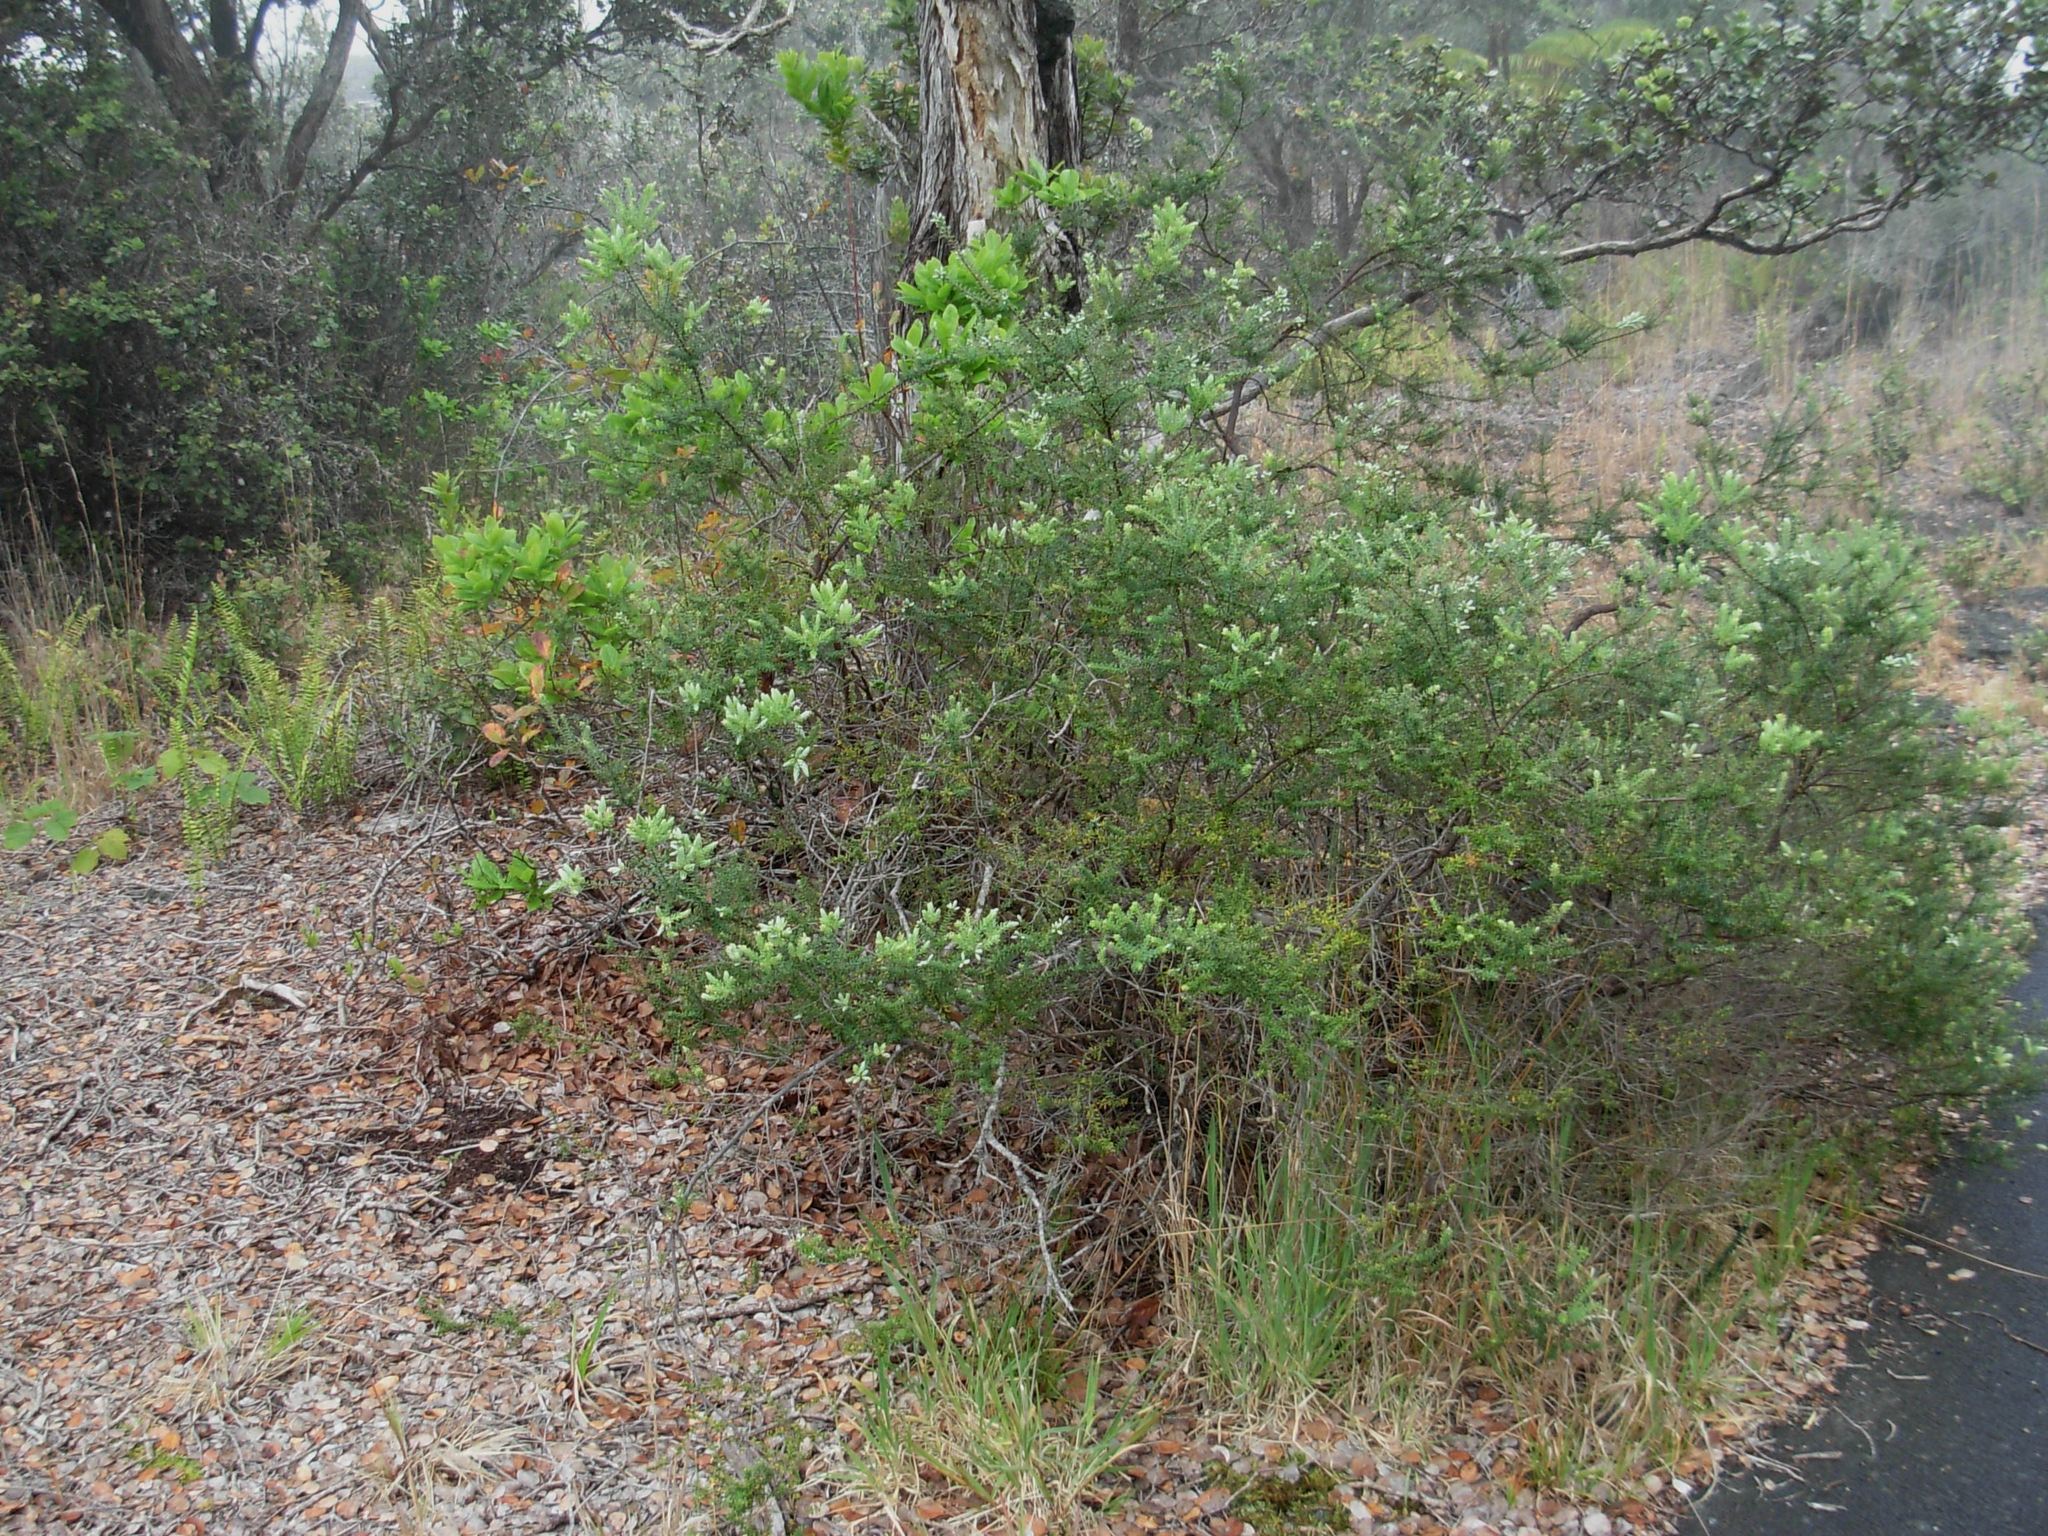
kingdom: Plantae
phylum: Tracheophyta
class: Magnoliopsida
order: Ericales
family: Ericaceae
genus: Leptecophylla
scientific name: Leptecophylla tameiameiae
